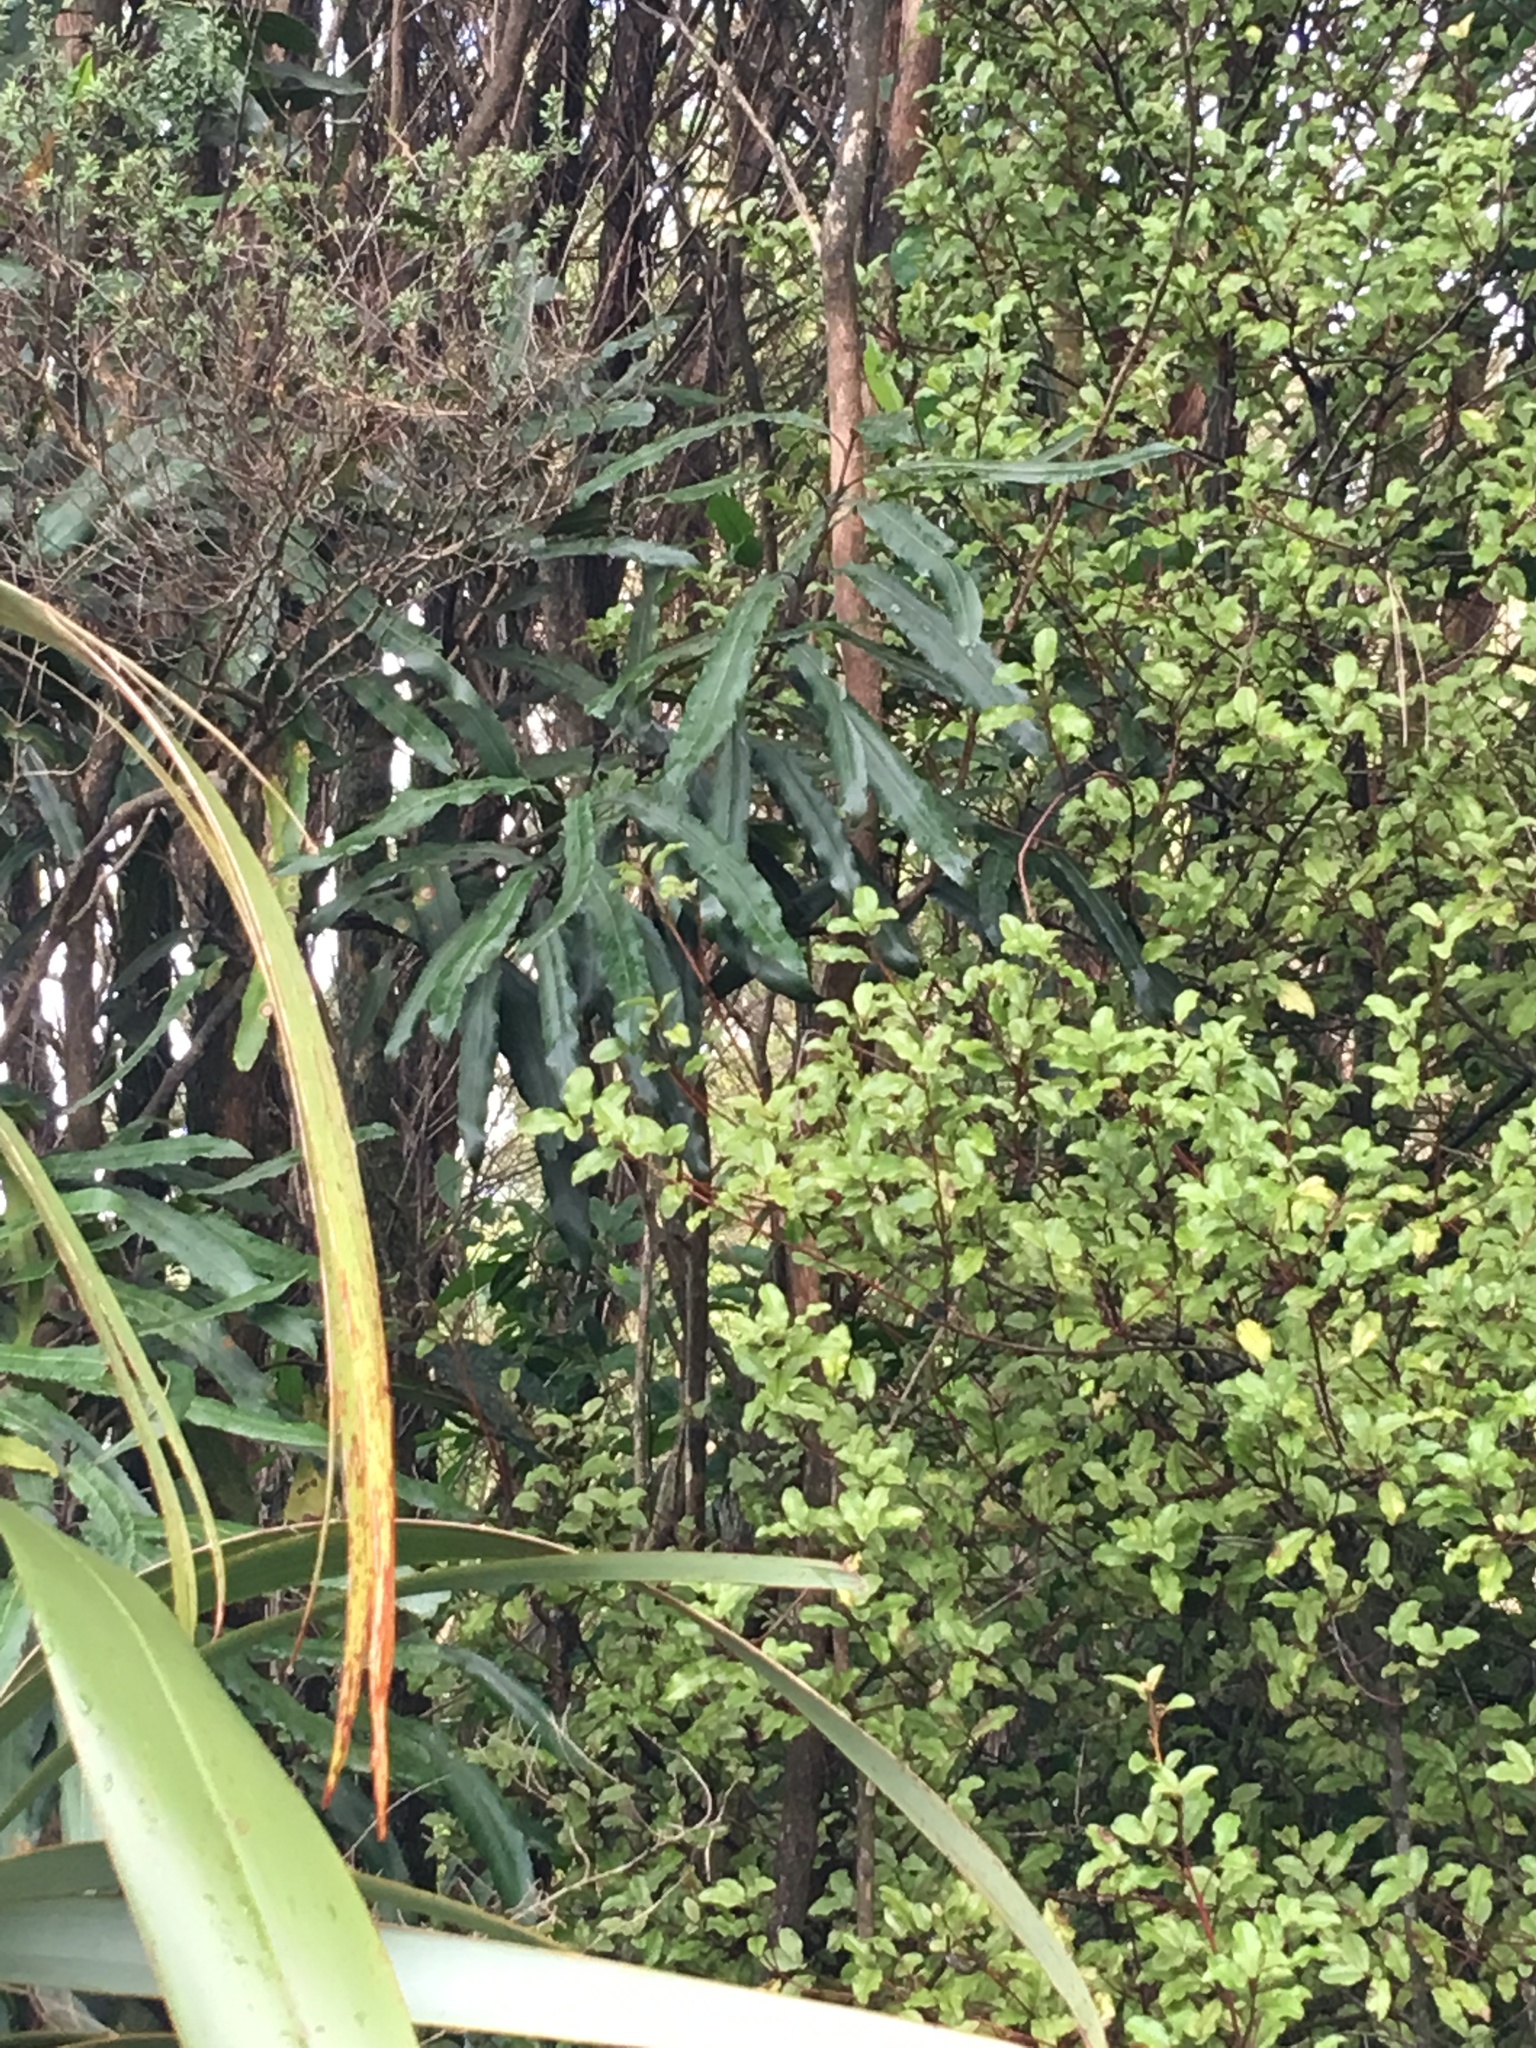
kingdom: Plantae
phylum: Tracheophyta
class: Magnoliopsida
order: Proteales
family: Proteaceae
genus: Knightia
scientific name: Knightia excelsa
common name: New zealand-honeysuckle
